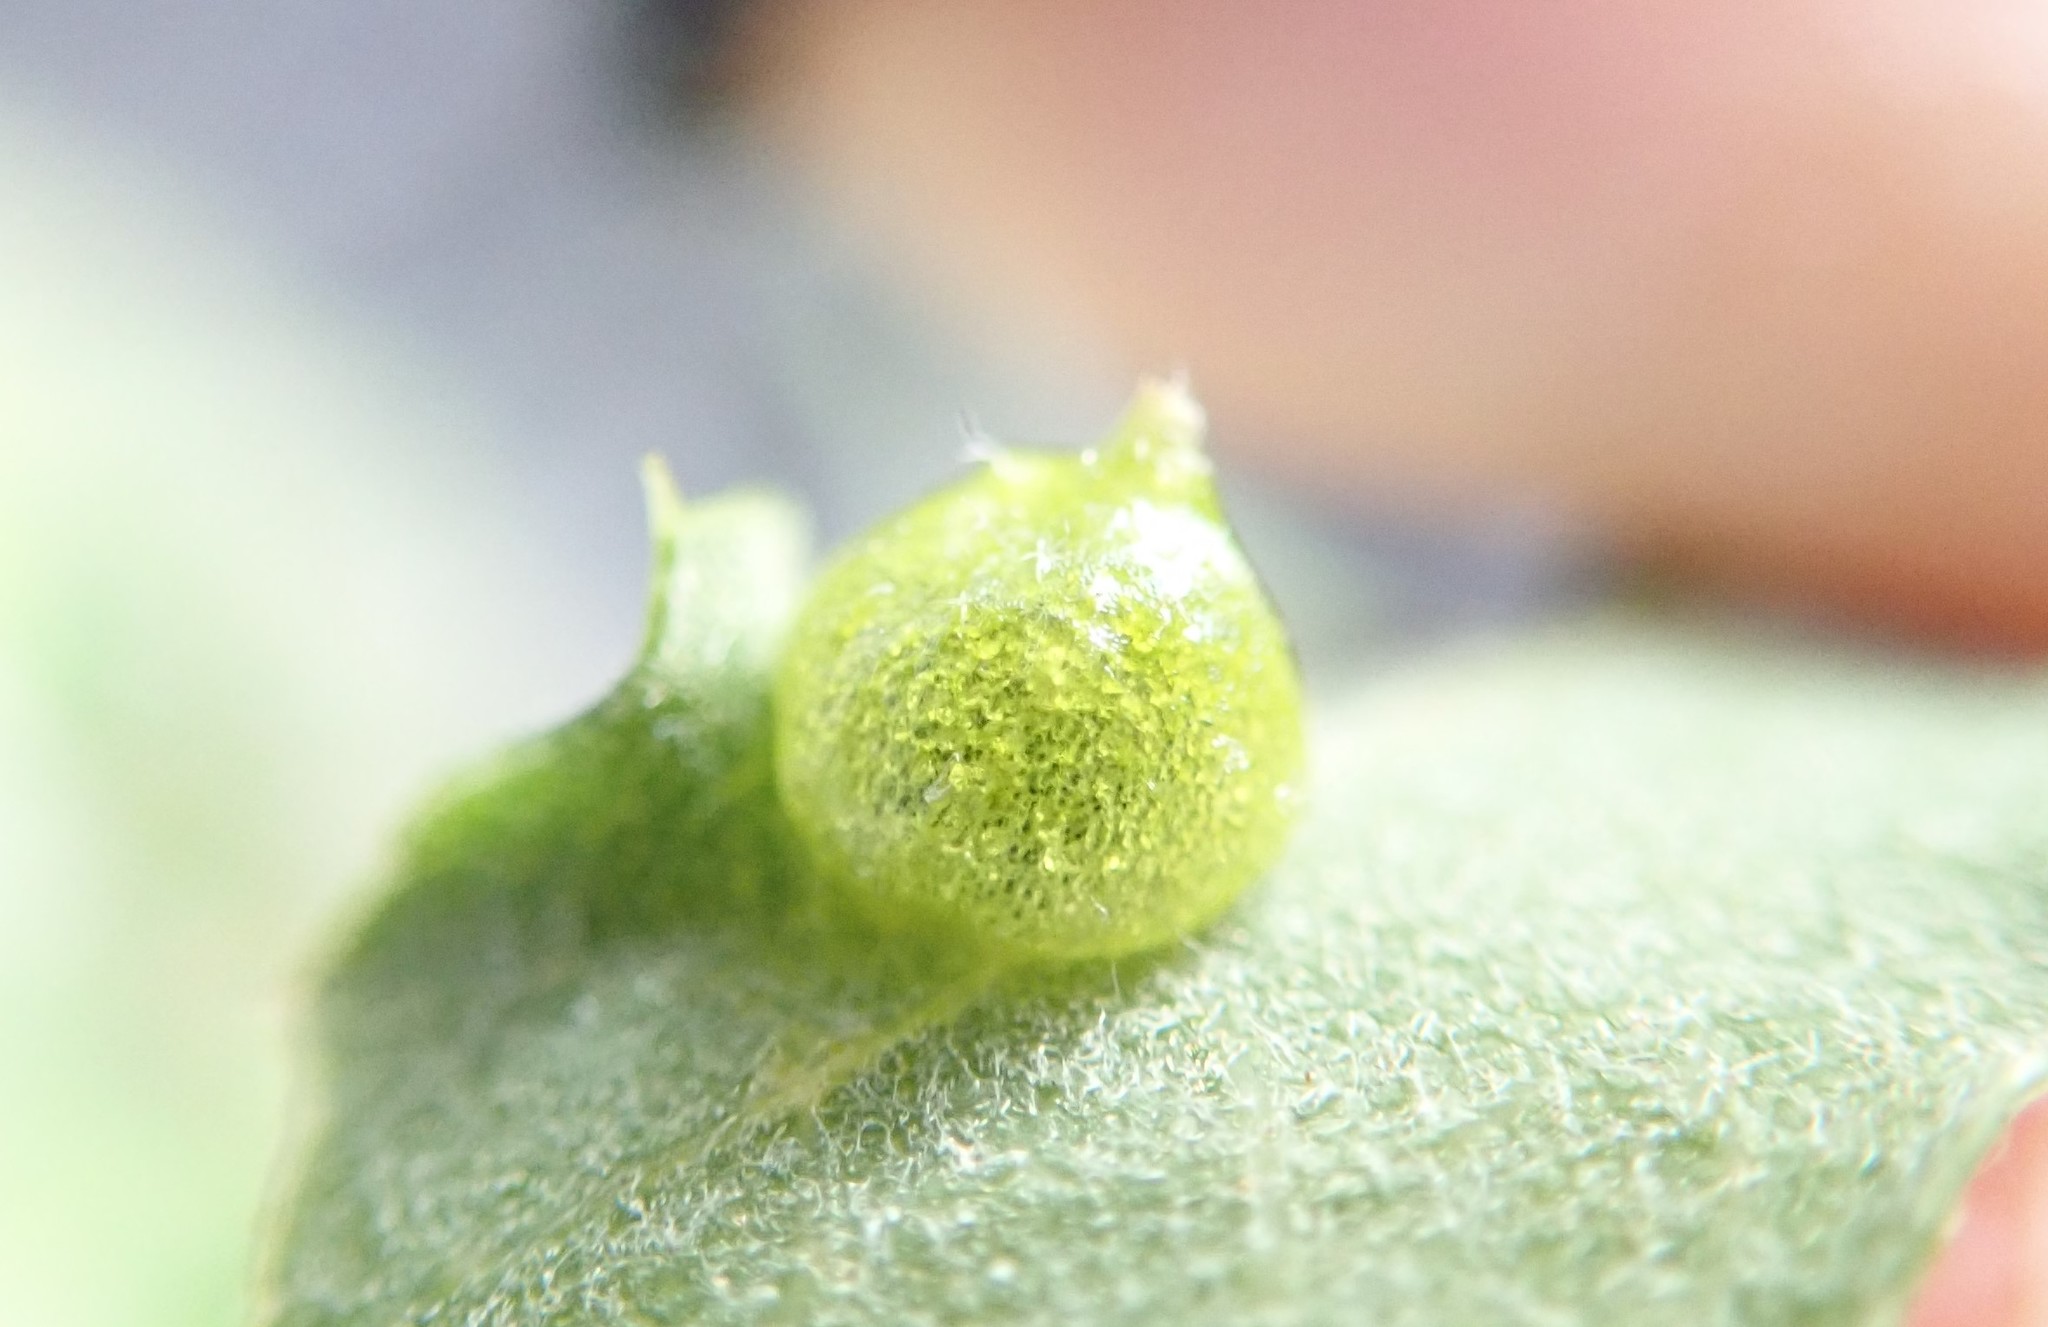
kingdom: Animalia
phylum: Arthropoda
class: Insecta
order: Hymenoptera
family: Cynipidae
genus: Andricus
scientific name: Andricus
